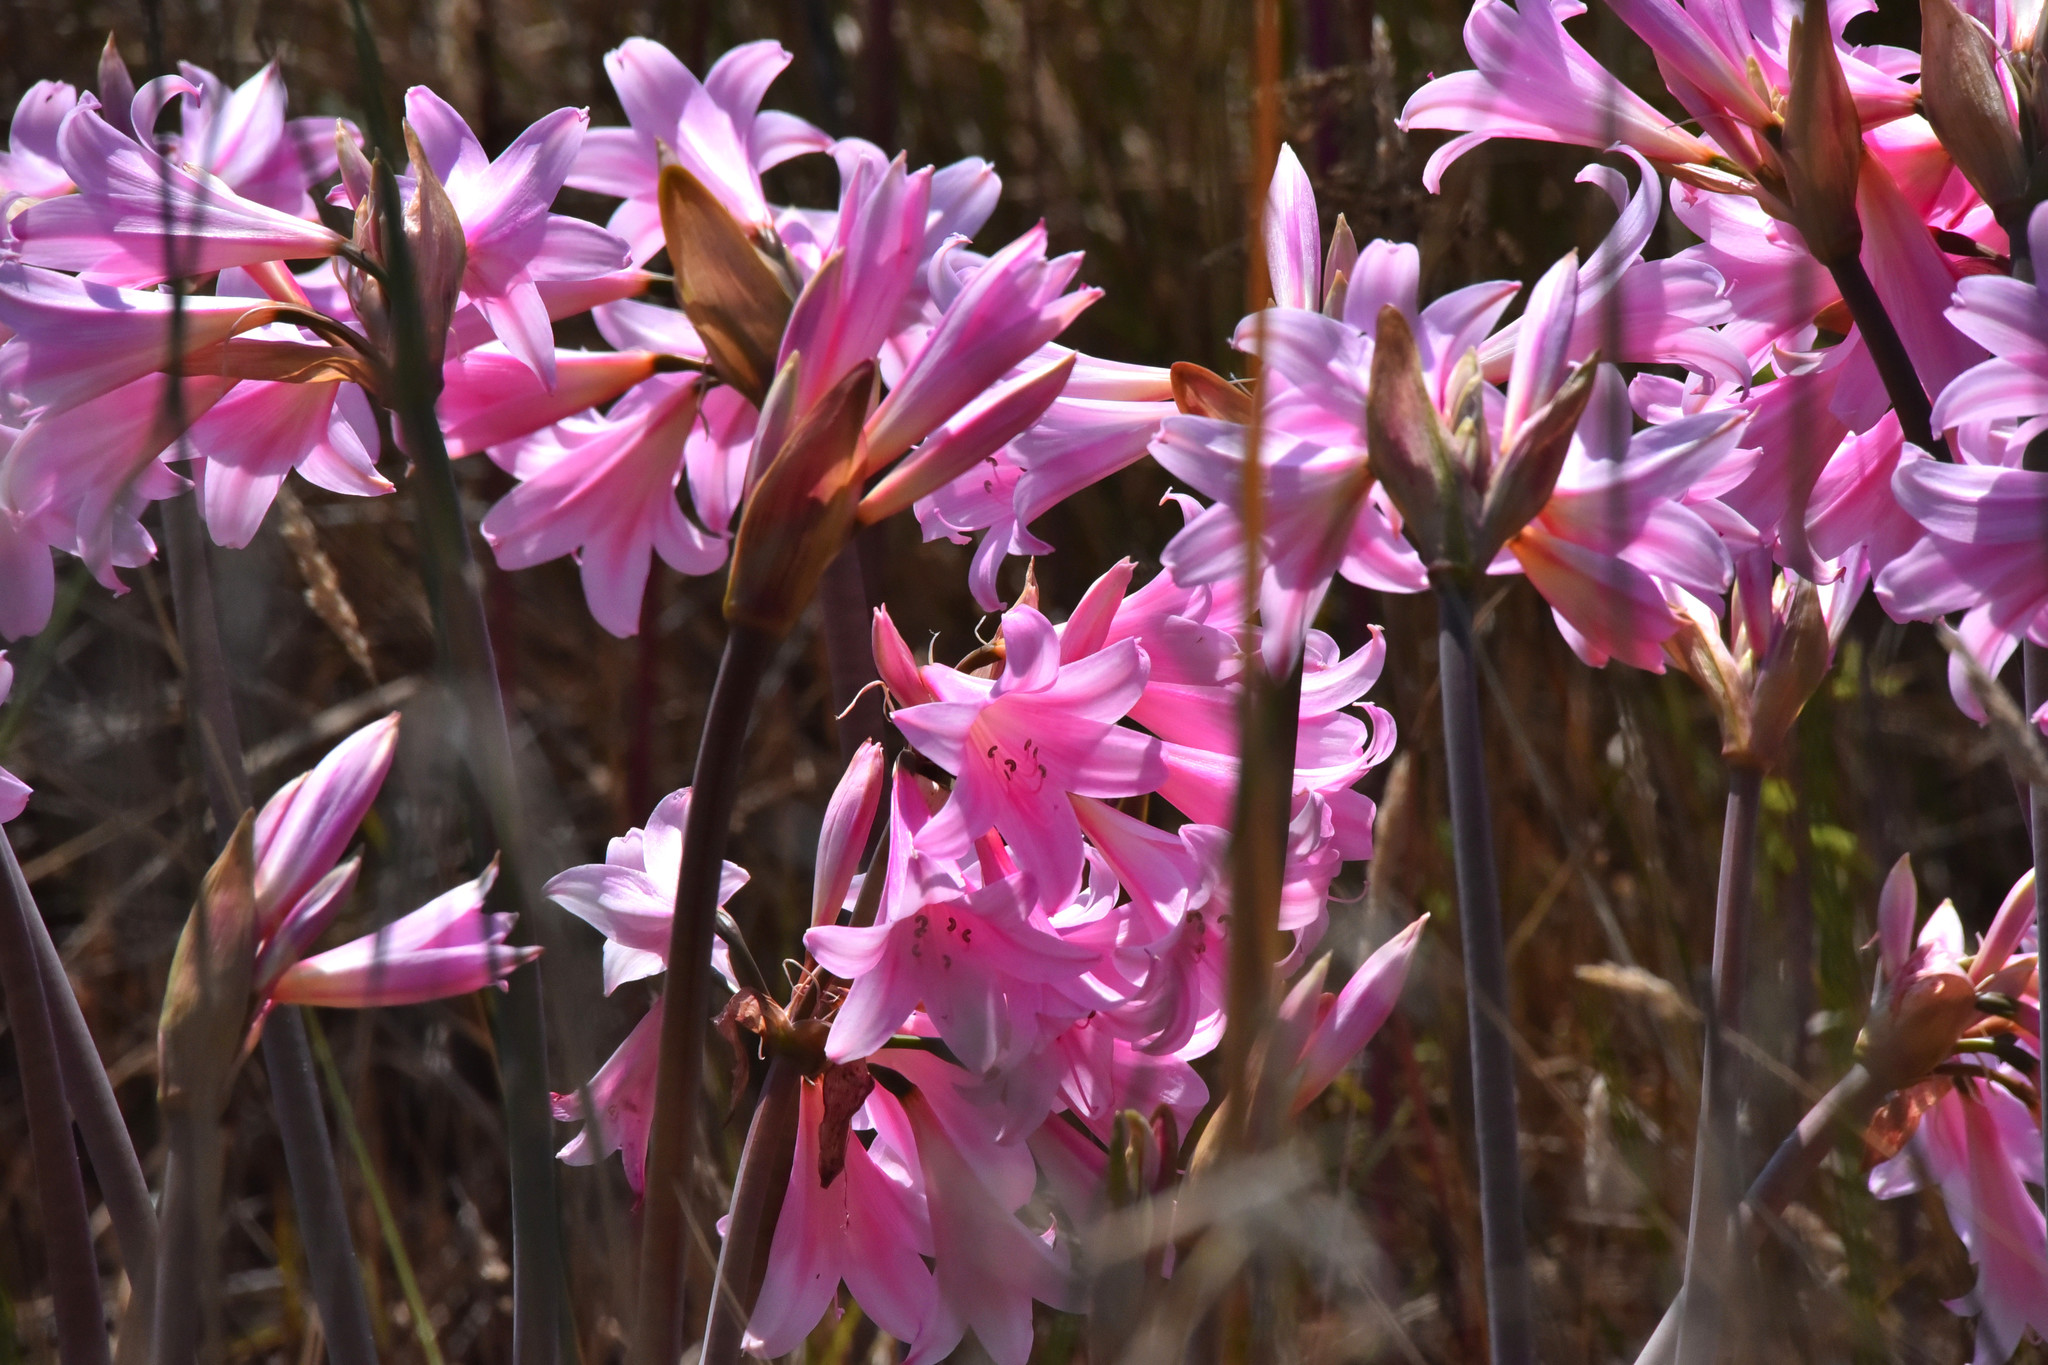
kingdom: Plantae
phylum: Tracheophyta
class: Liliopsida
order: Asparagales
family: Amaryllidaceae
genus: Amaryllis
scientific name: Amaryllis belladonna
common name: Jersey lily
